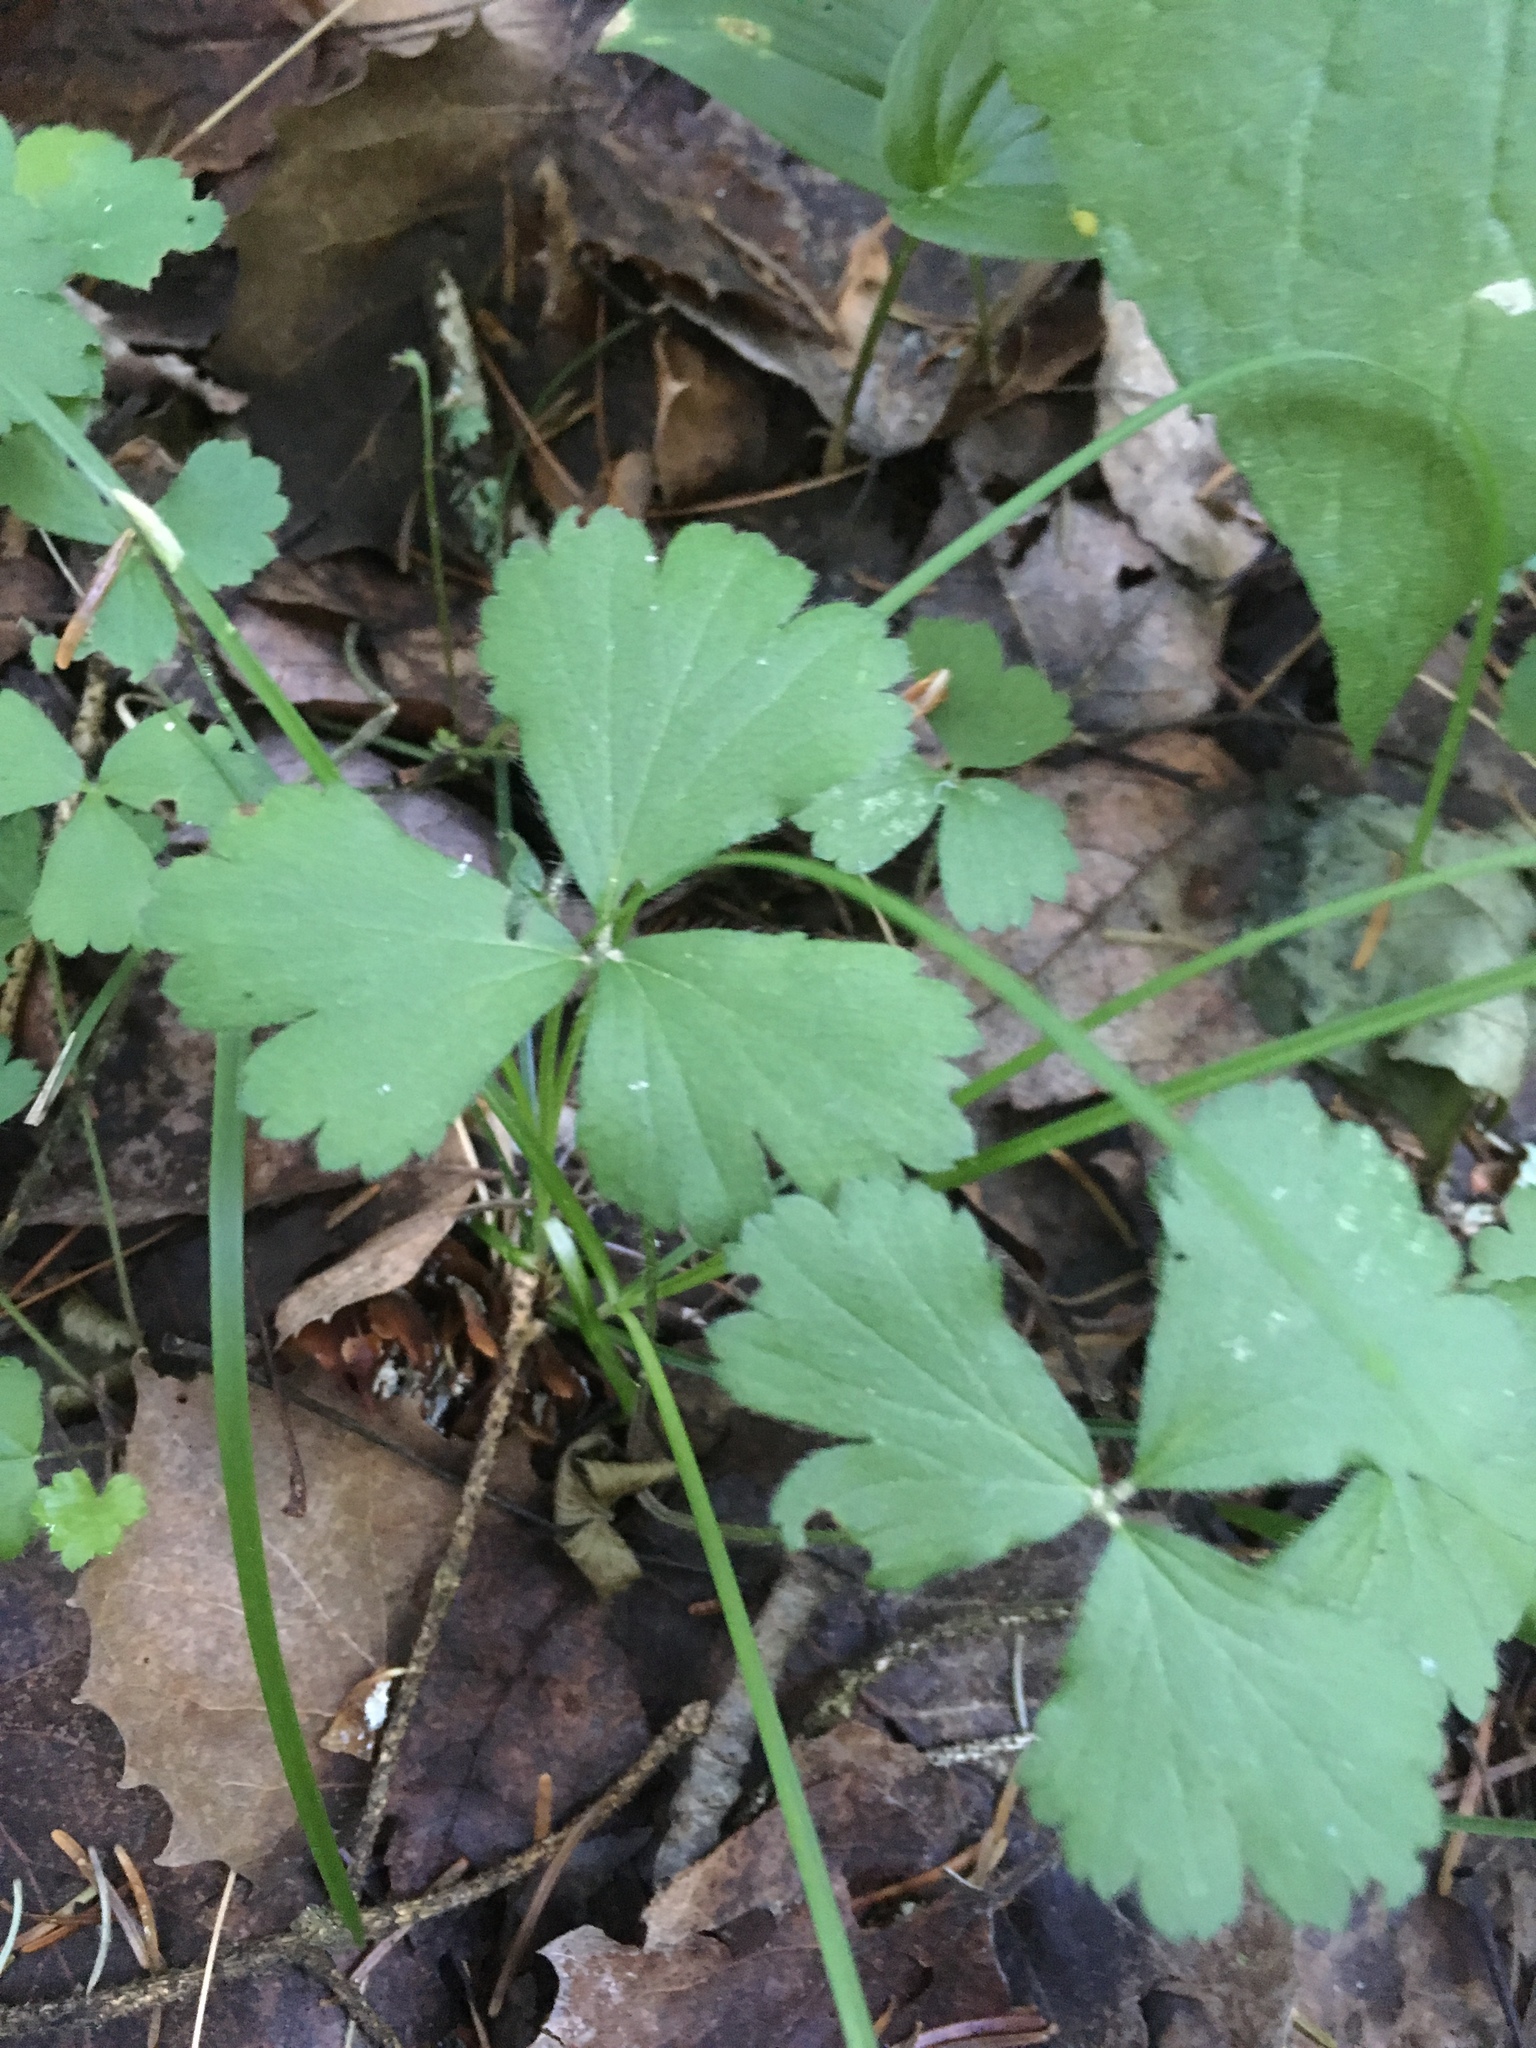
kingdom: Plantae
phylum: Tracheophyta
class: Magnoliopsida
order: Rosales
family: Rosaceae
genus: Geum
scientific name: Geum fragarioides
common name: Appalachian barren strawberry
